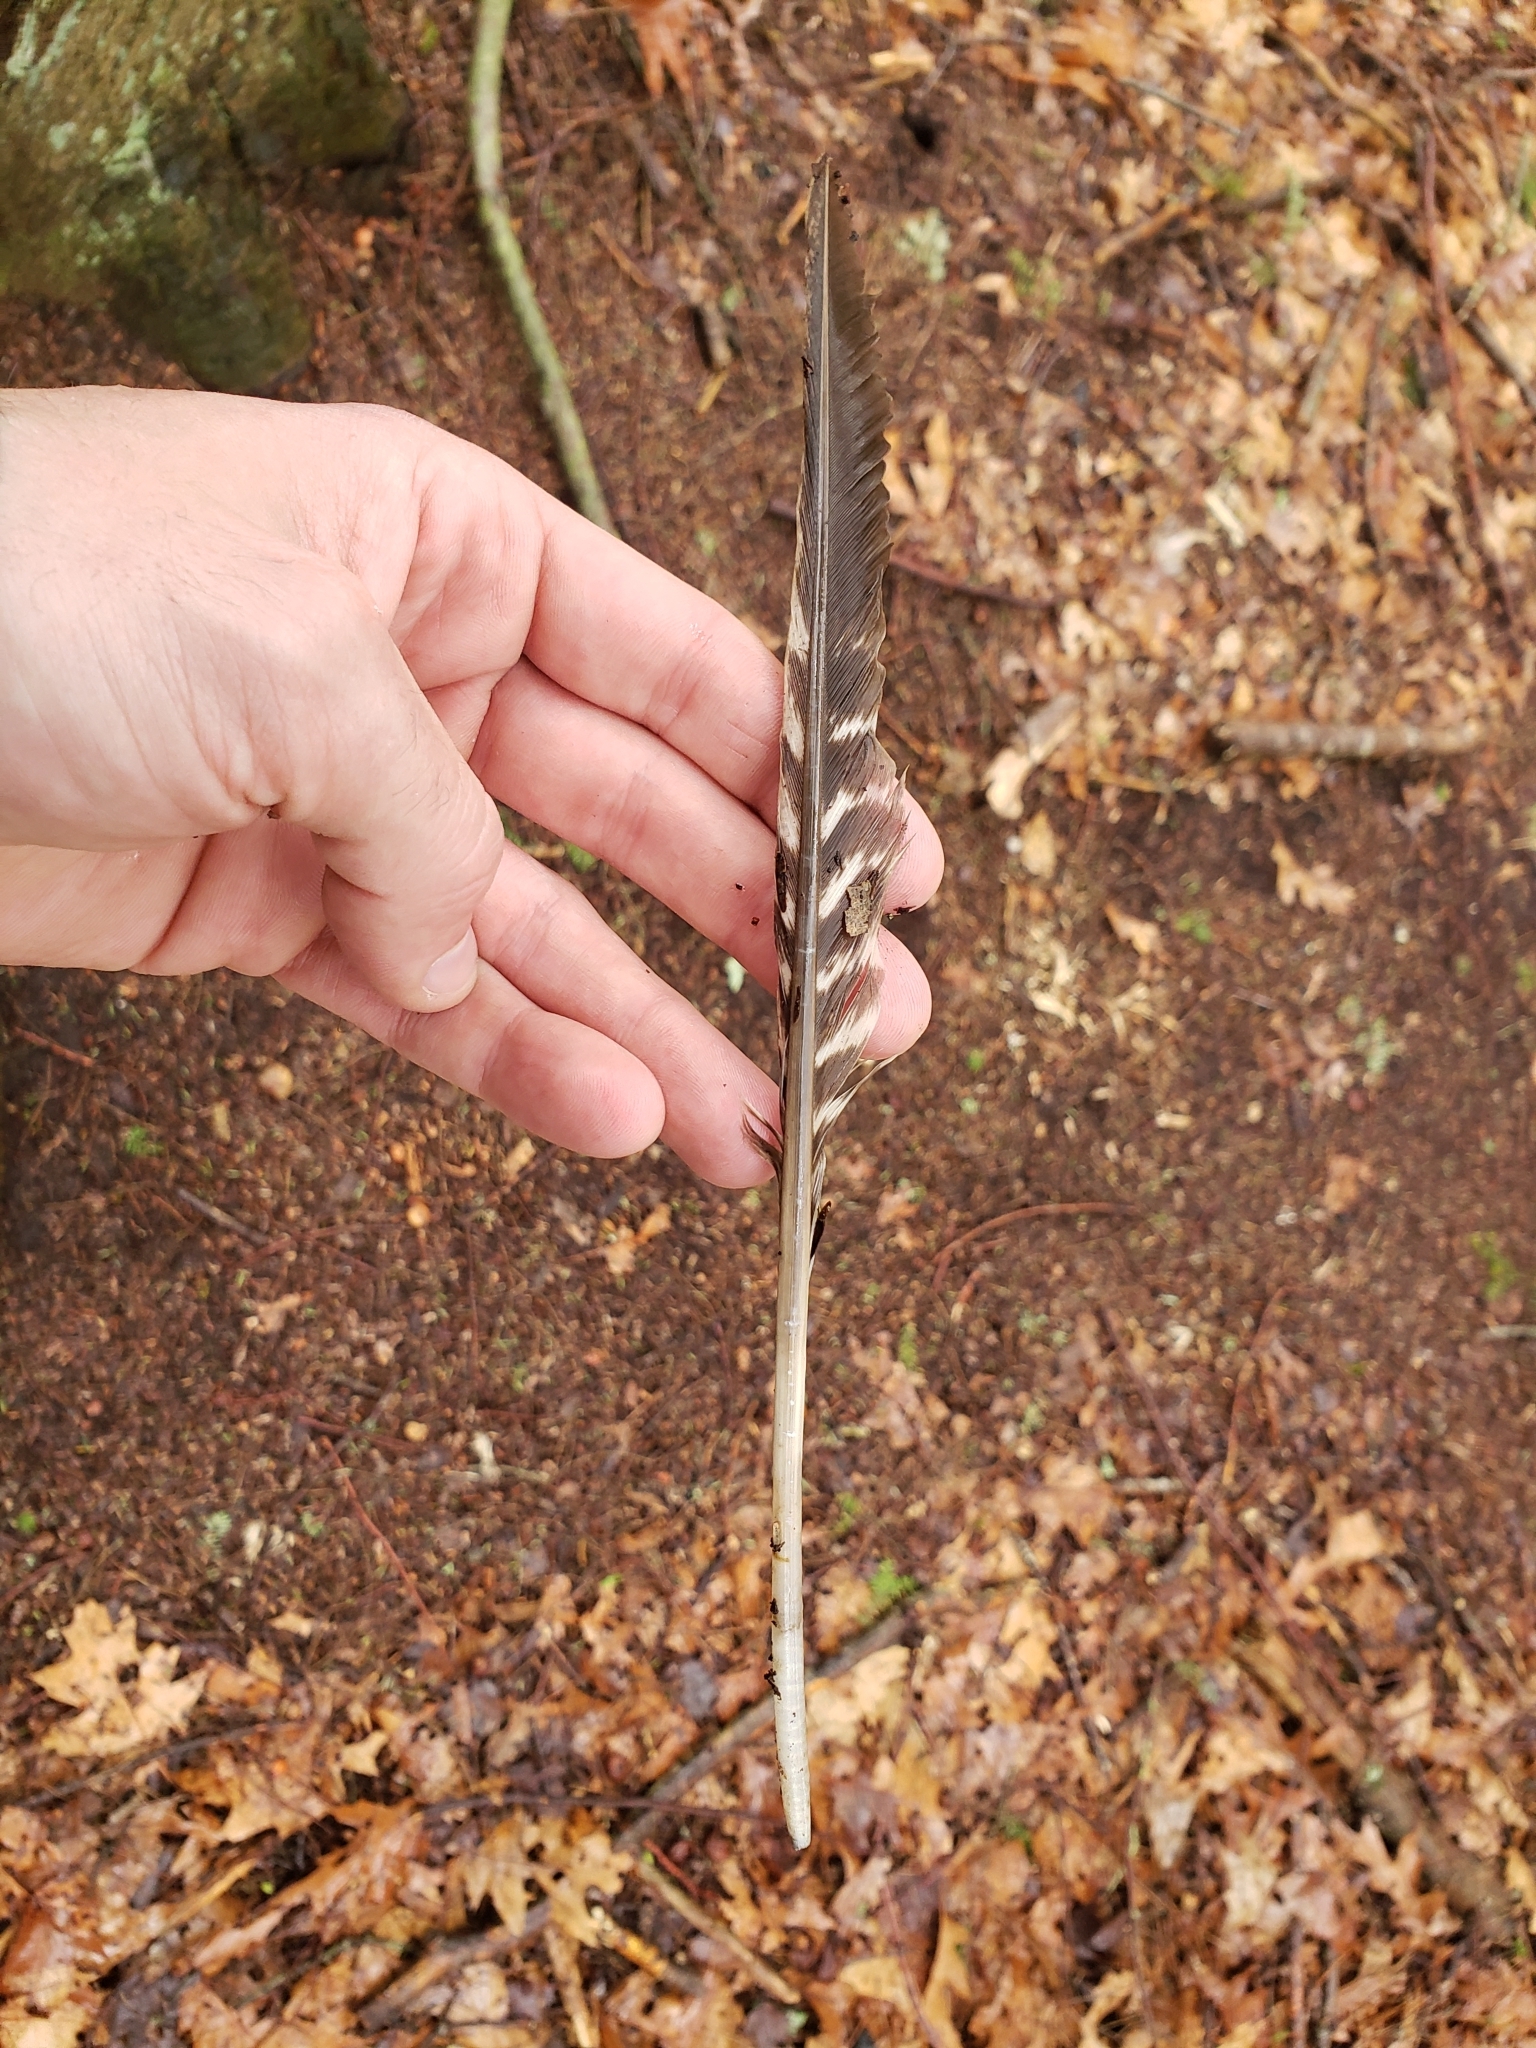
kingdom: Animalia
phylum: Chordata
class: Aves
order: Galliformes
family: Phasianidae
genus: Meleagris
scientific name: Meleagris gallopavo
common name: Wild turkey
